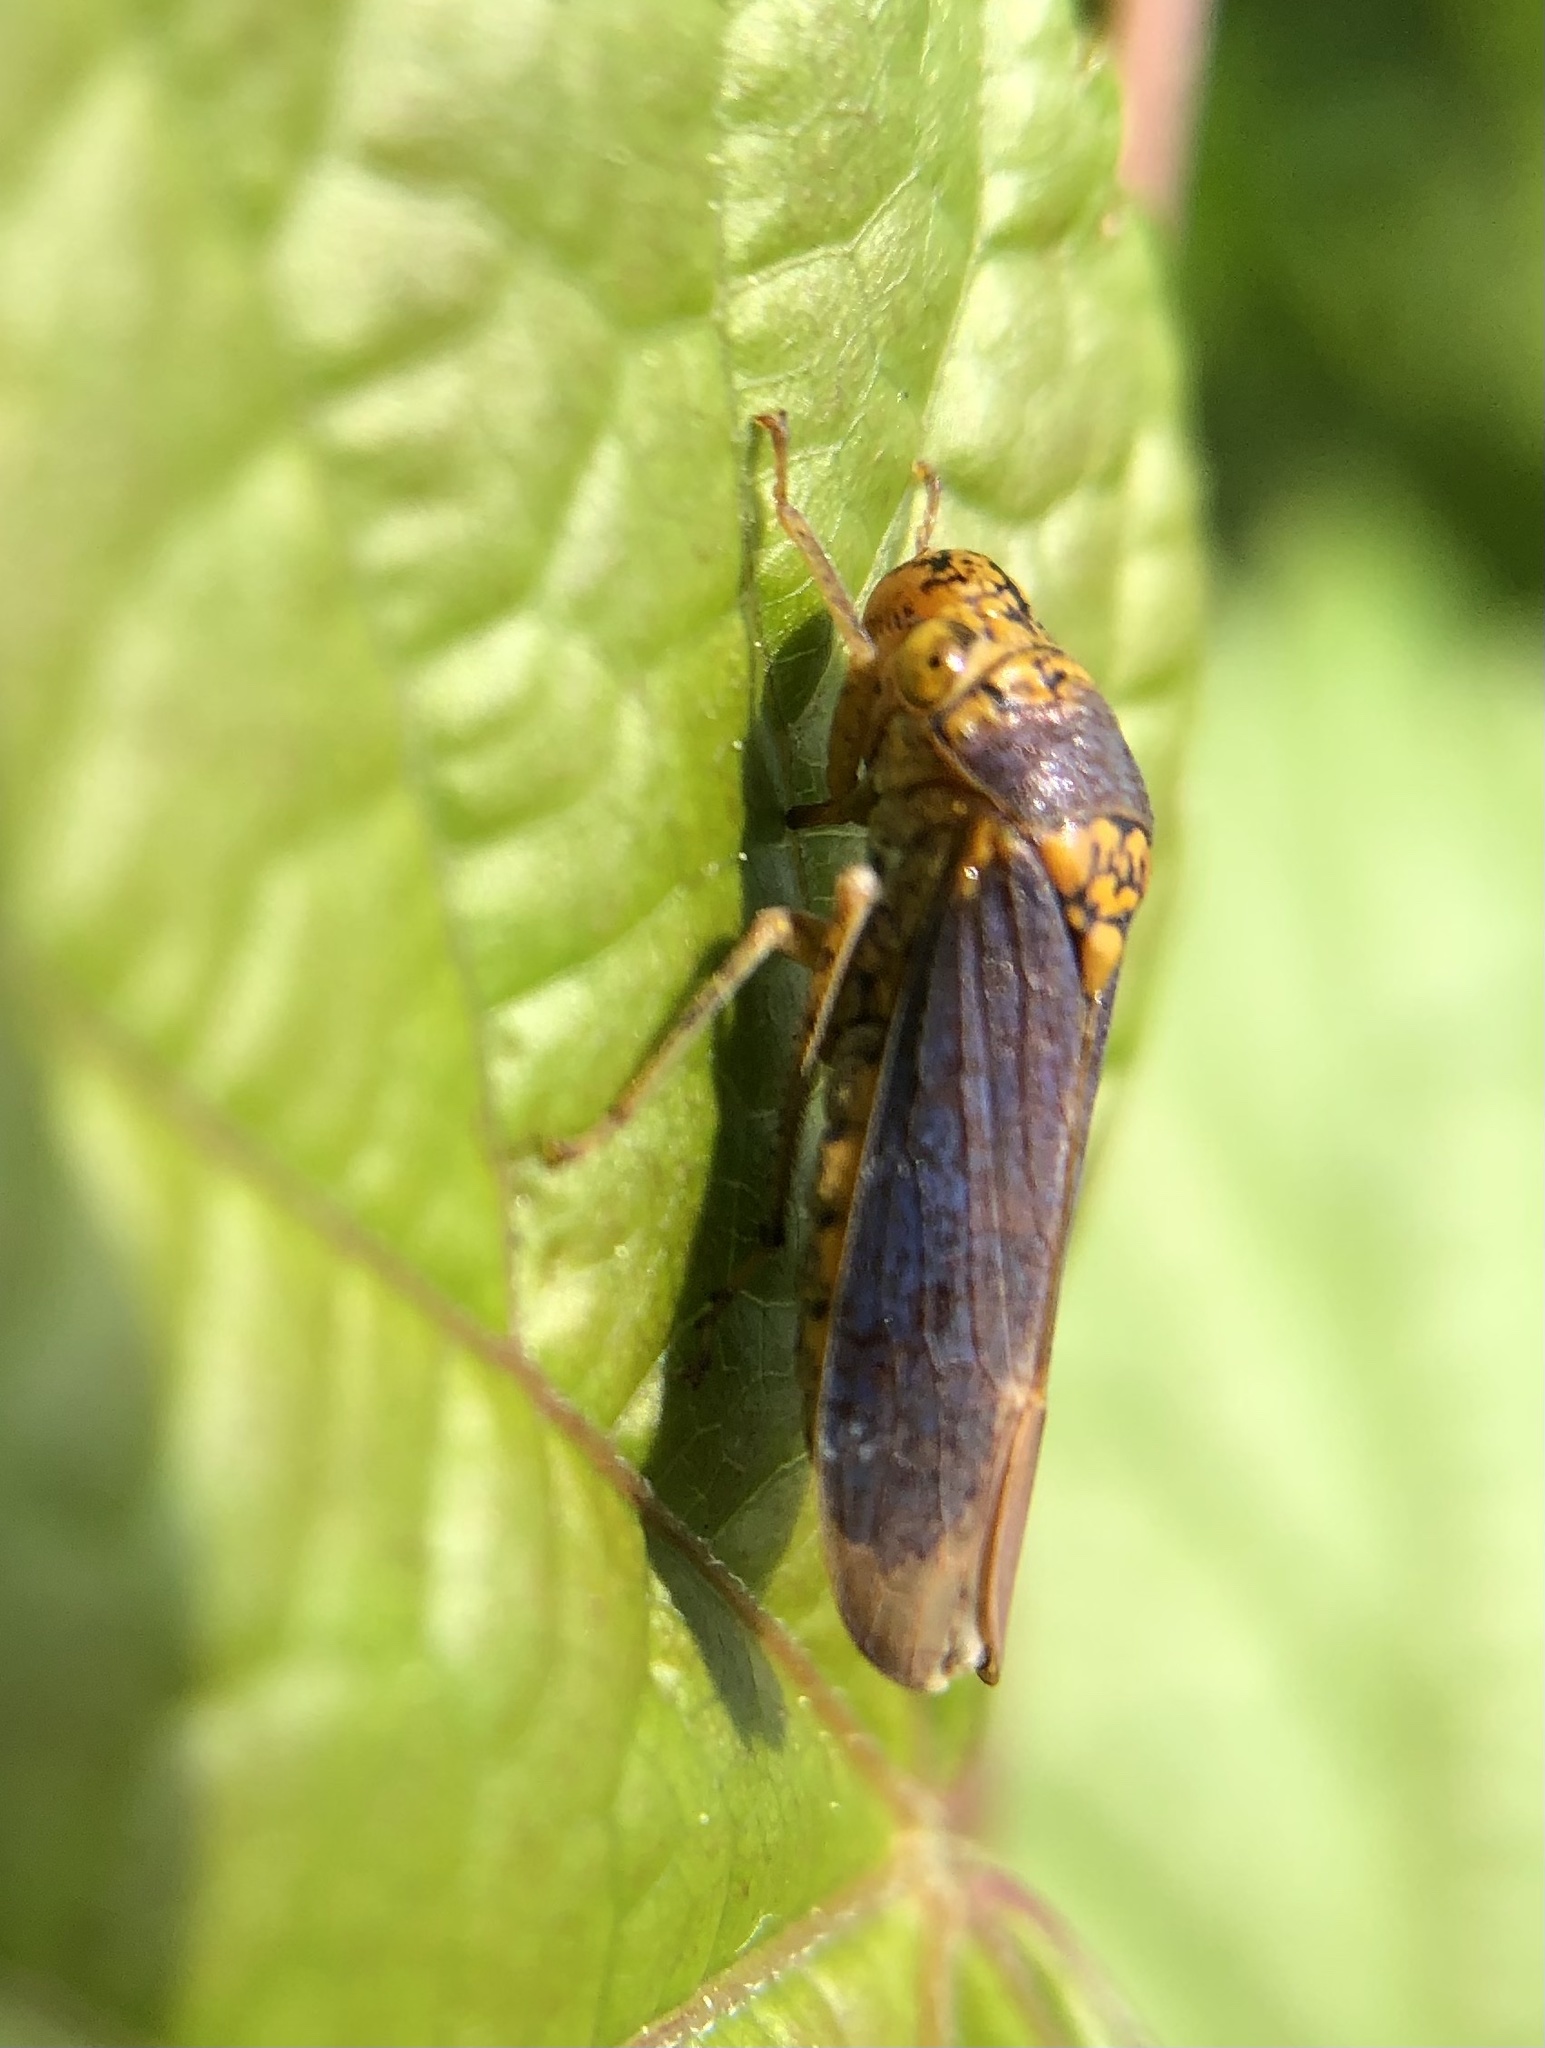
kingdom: Animalia
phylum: Arthropoda
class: Insecta
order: Hemiptera
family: Cicadellidae
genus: Oncometopia
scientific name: Oncometopia orbona
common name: Broad-headed sharpshooter
